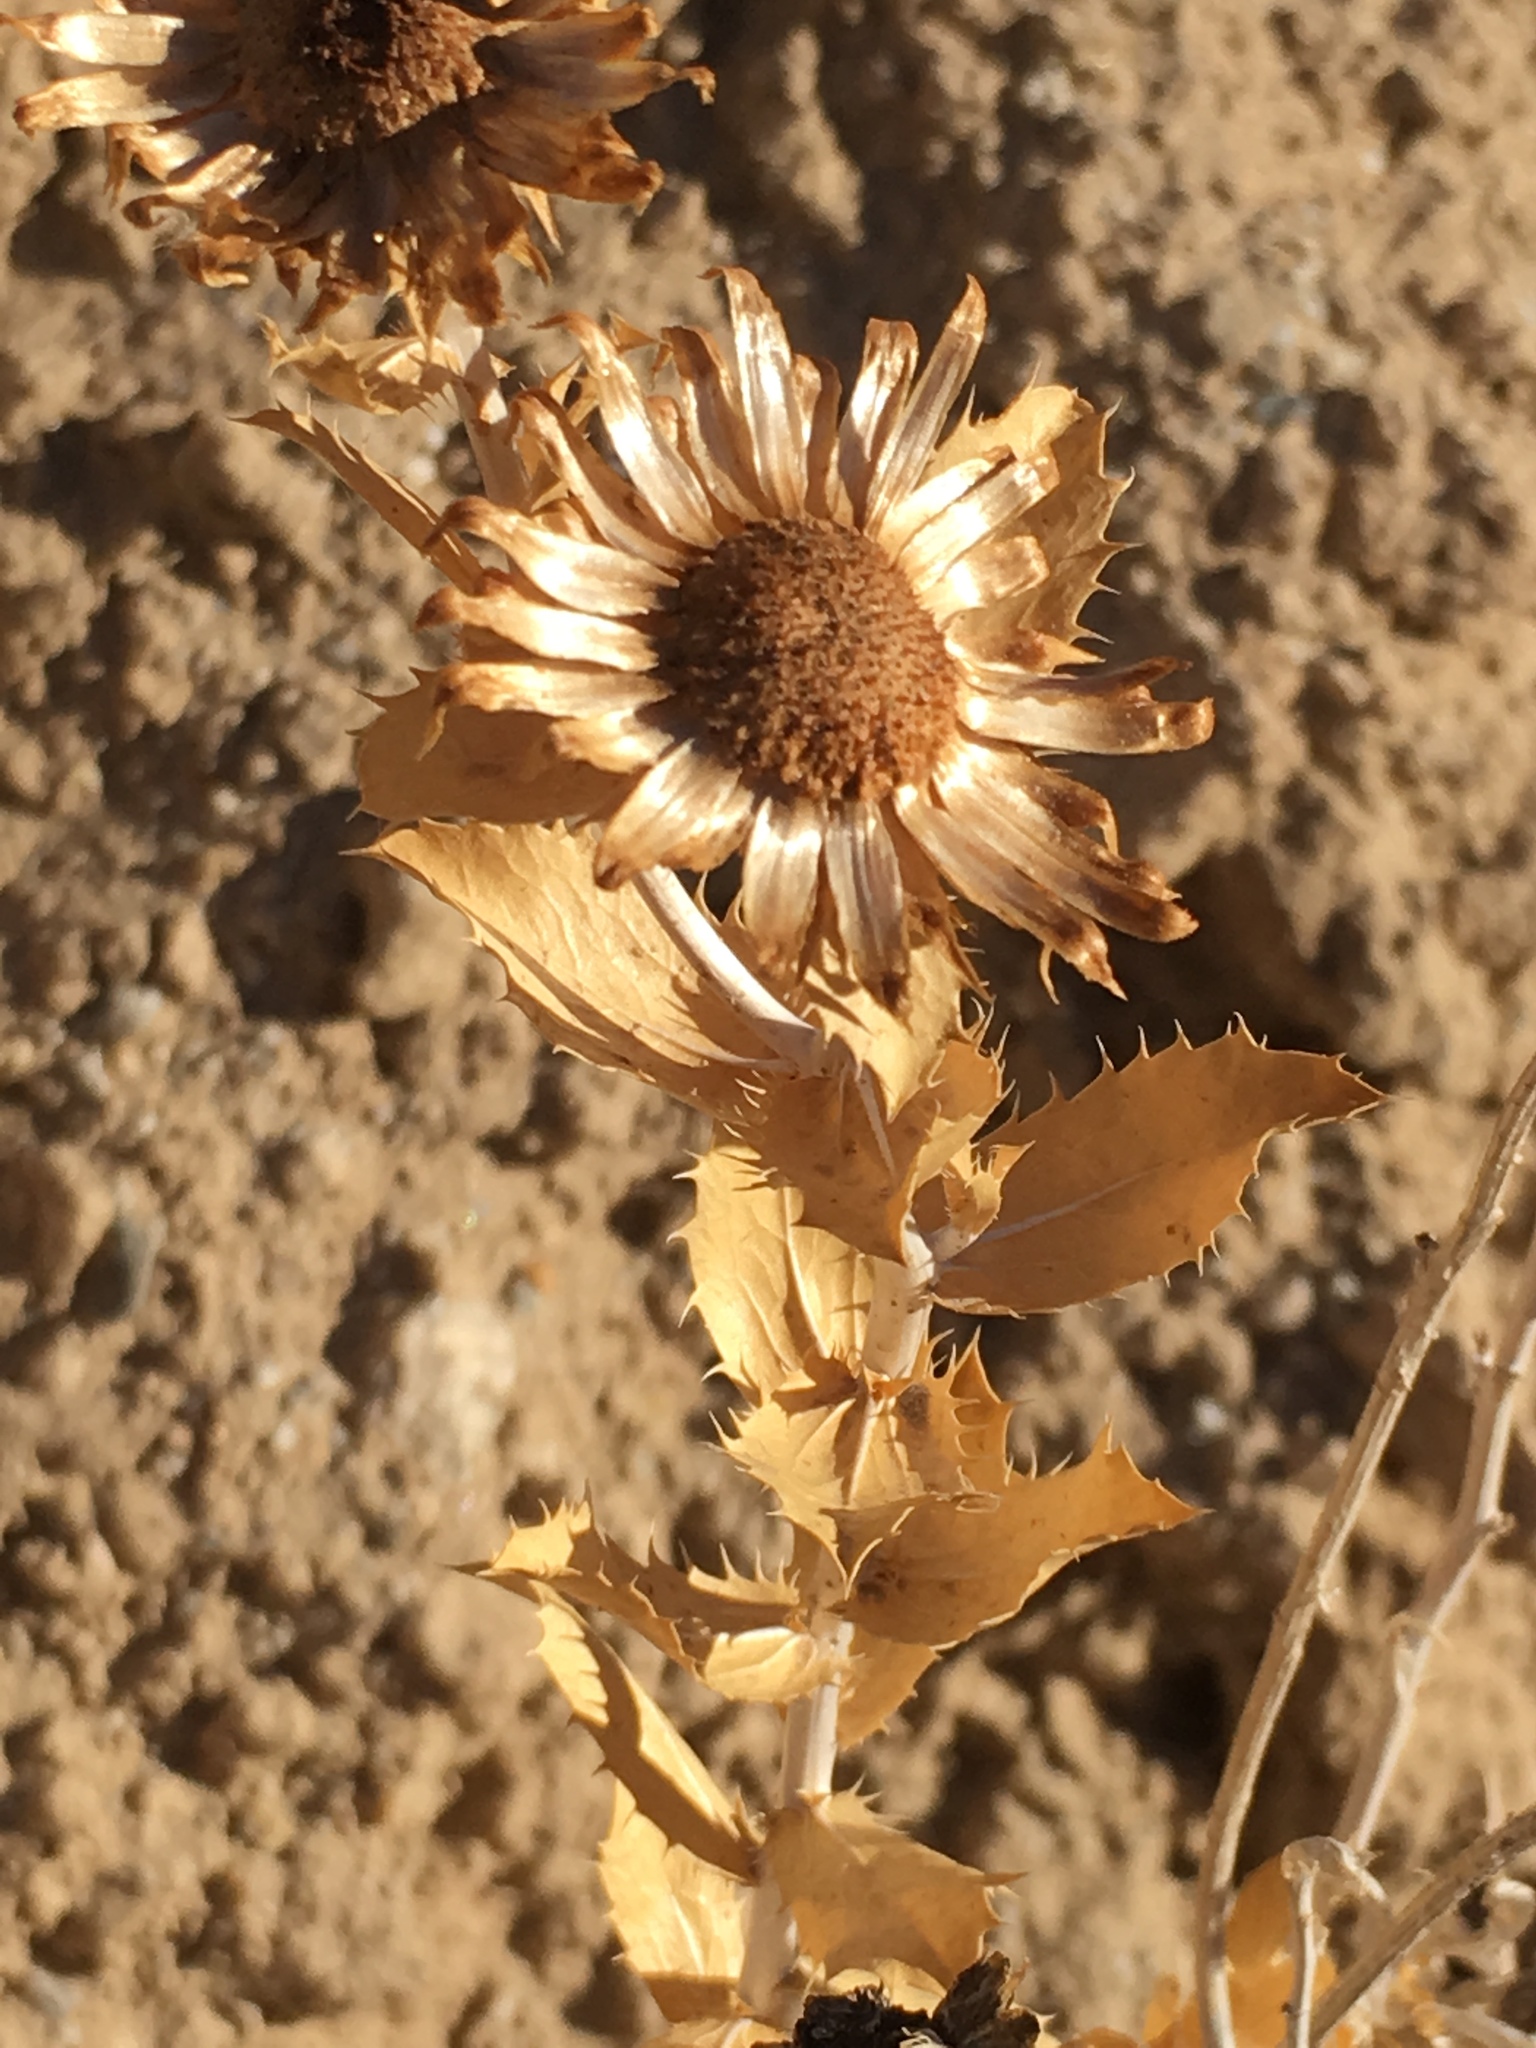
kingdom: Plantae
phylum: Tracheophyta
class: Magnoliopsida
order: Asterales
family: Asteraceae
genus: Xylorhiza
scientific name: Xylorhiza orcuttii
